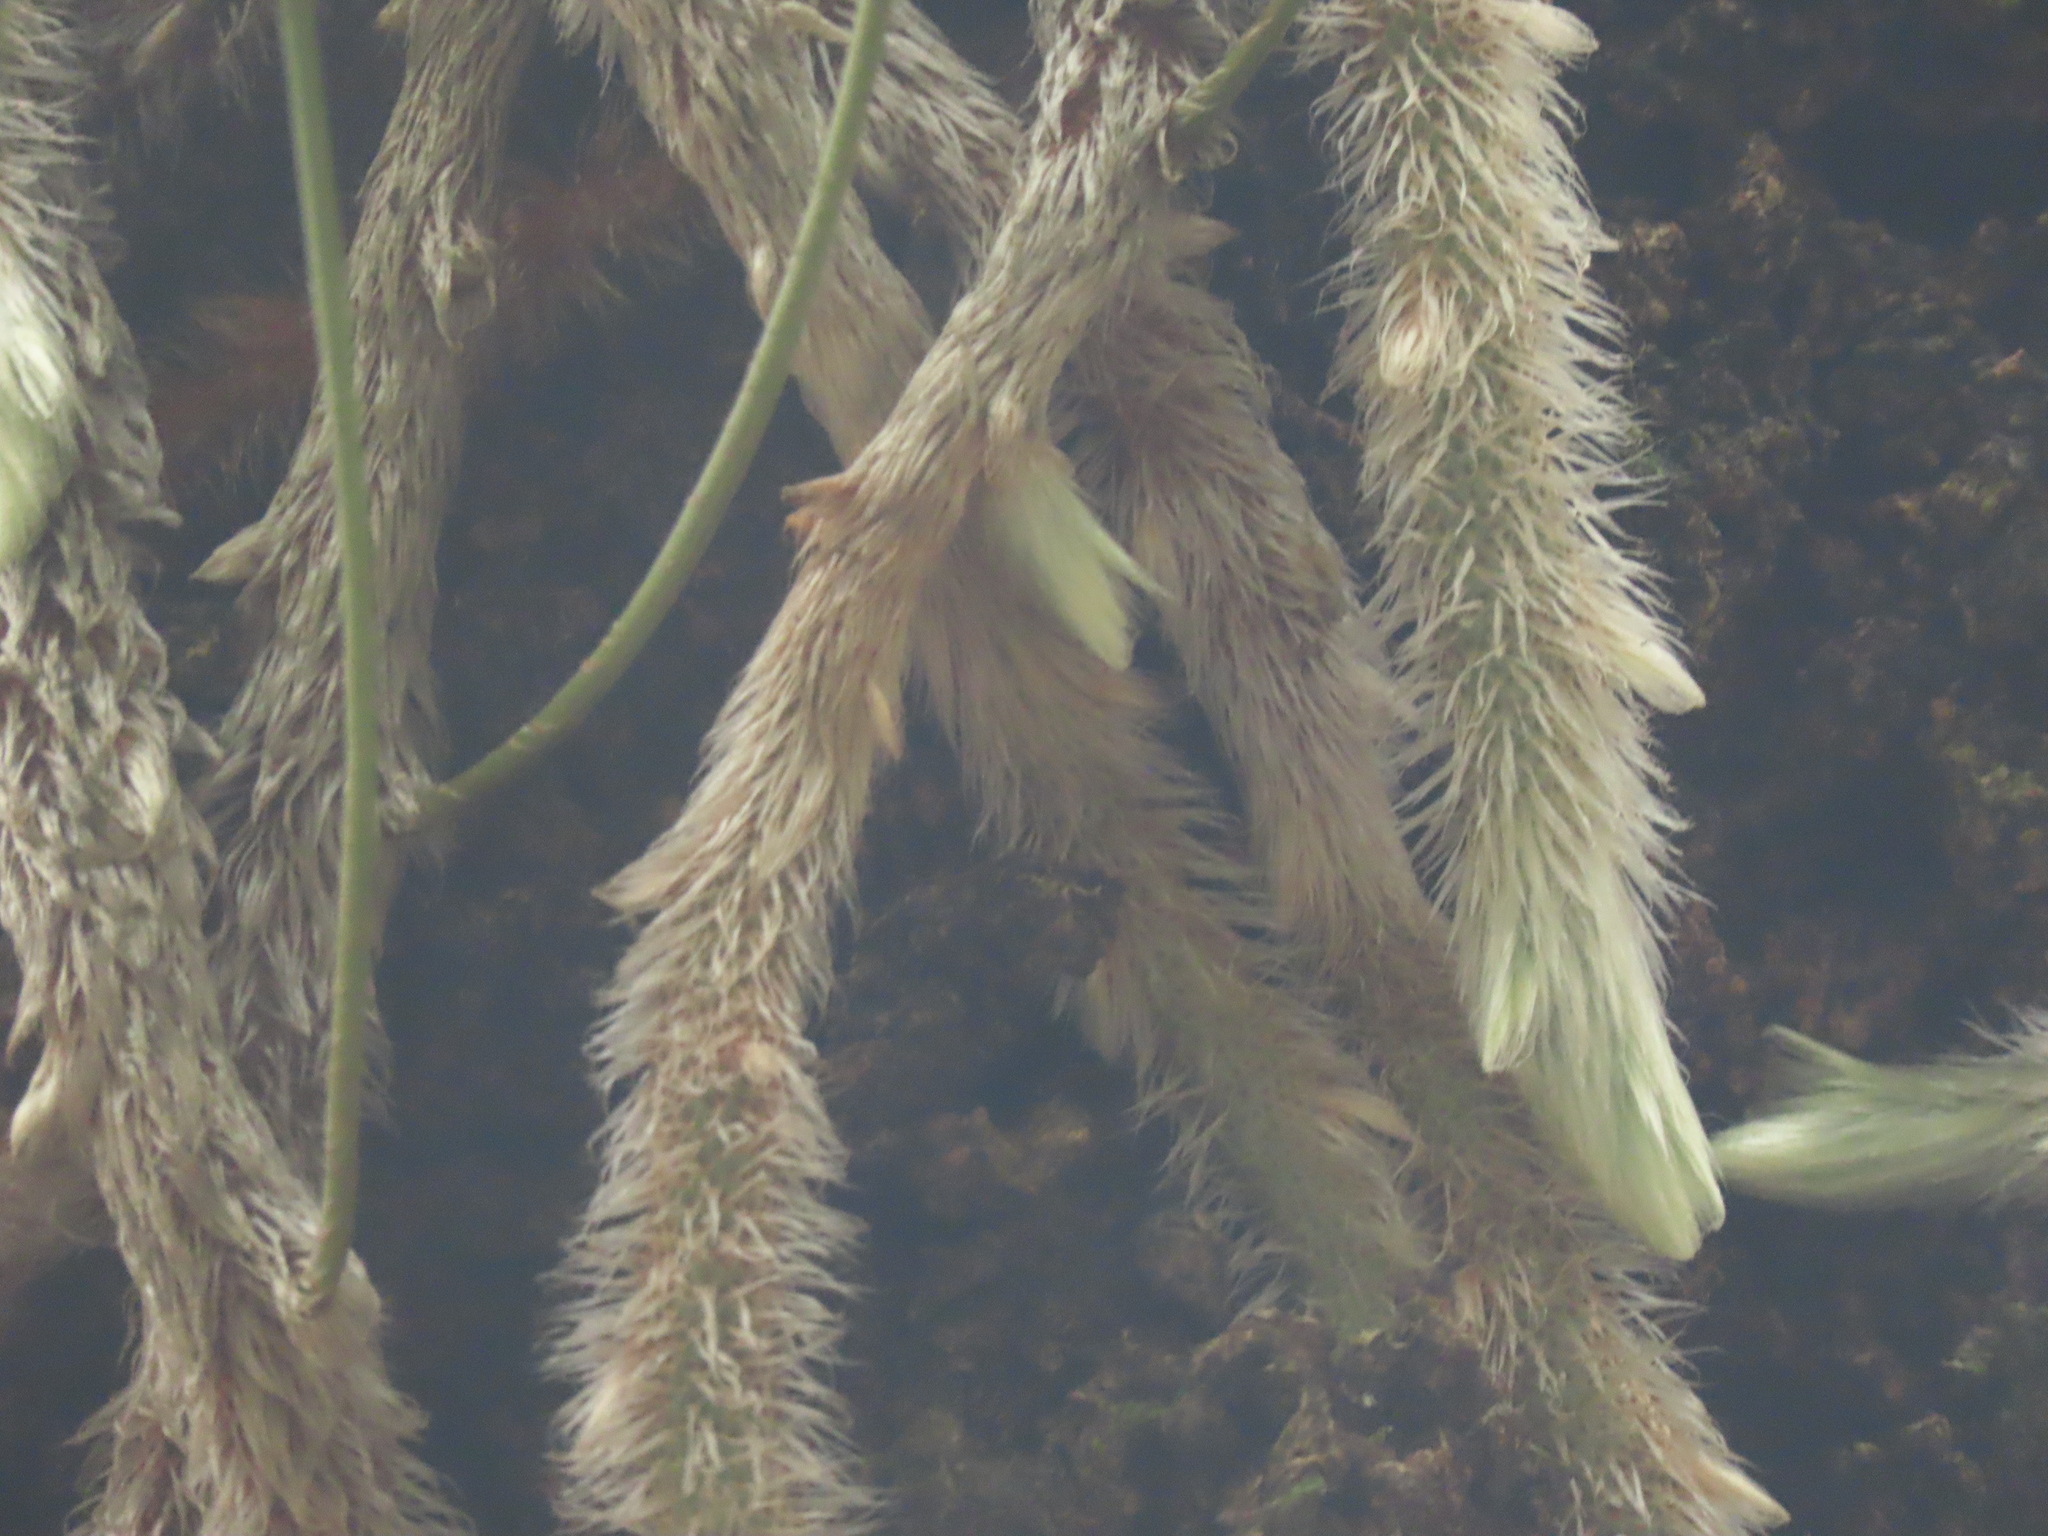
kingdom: Plantae
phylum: Tracheophyta
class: Polypodiopsida
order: Polypodiales
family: Davalliaceae
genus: Davallia
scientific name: Davallia griffithiana
